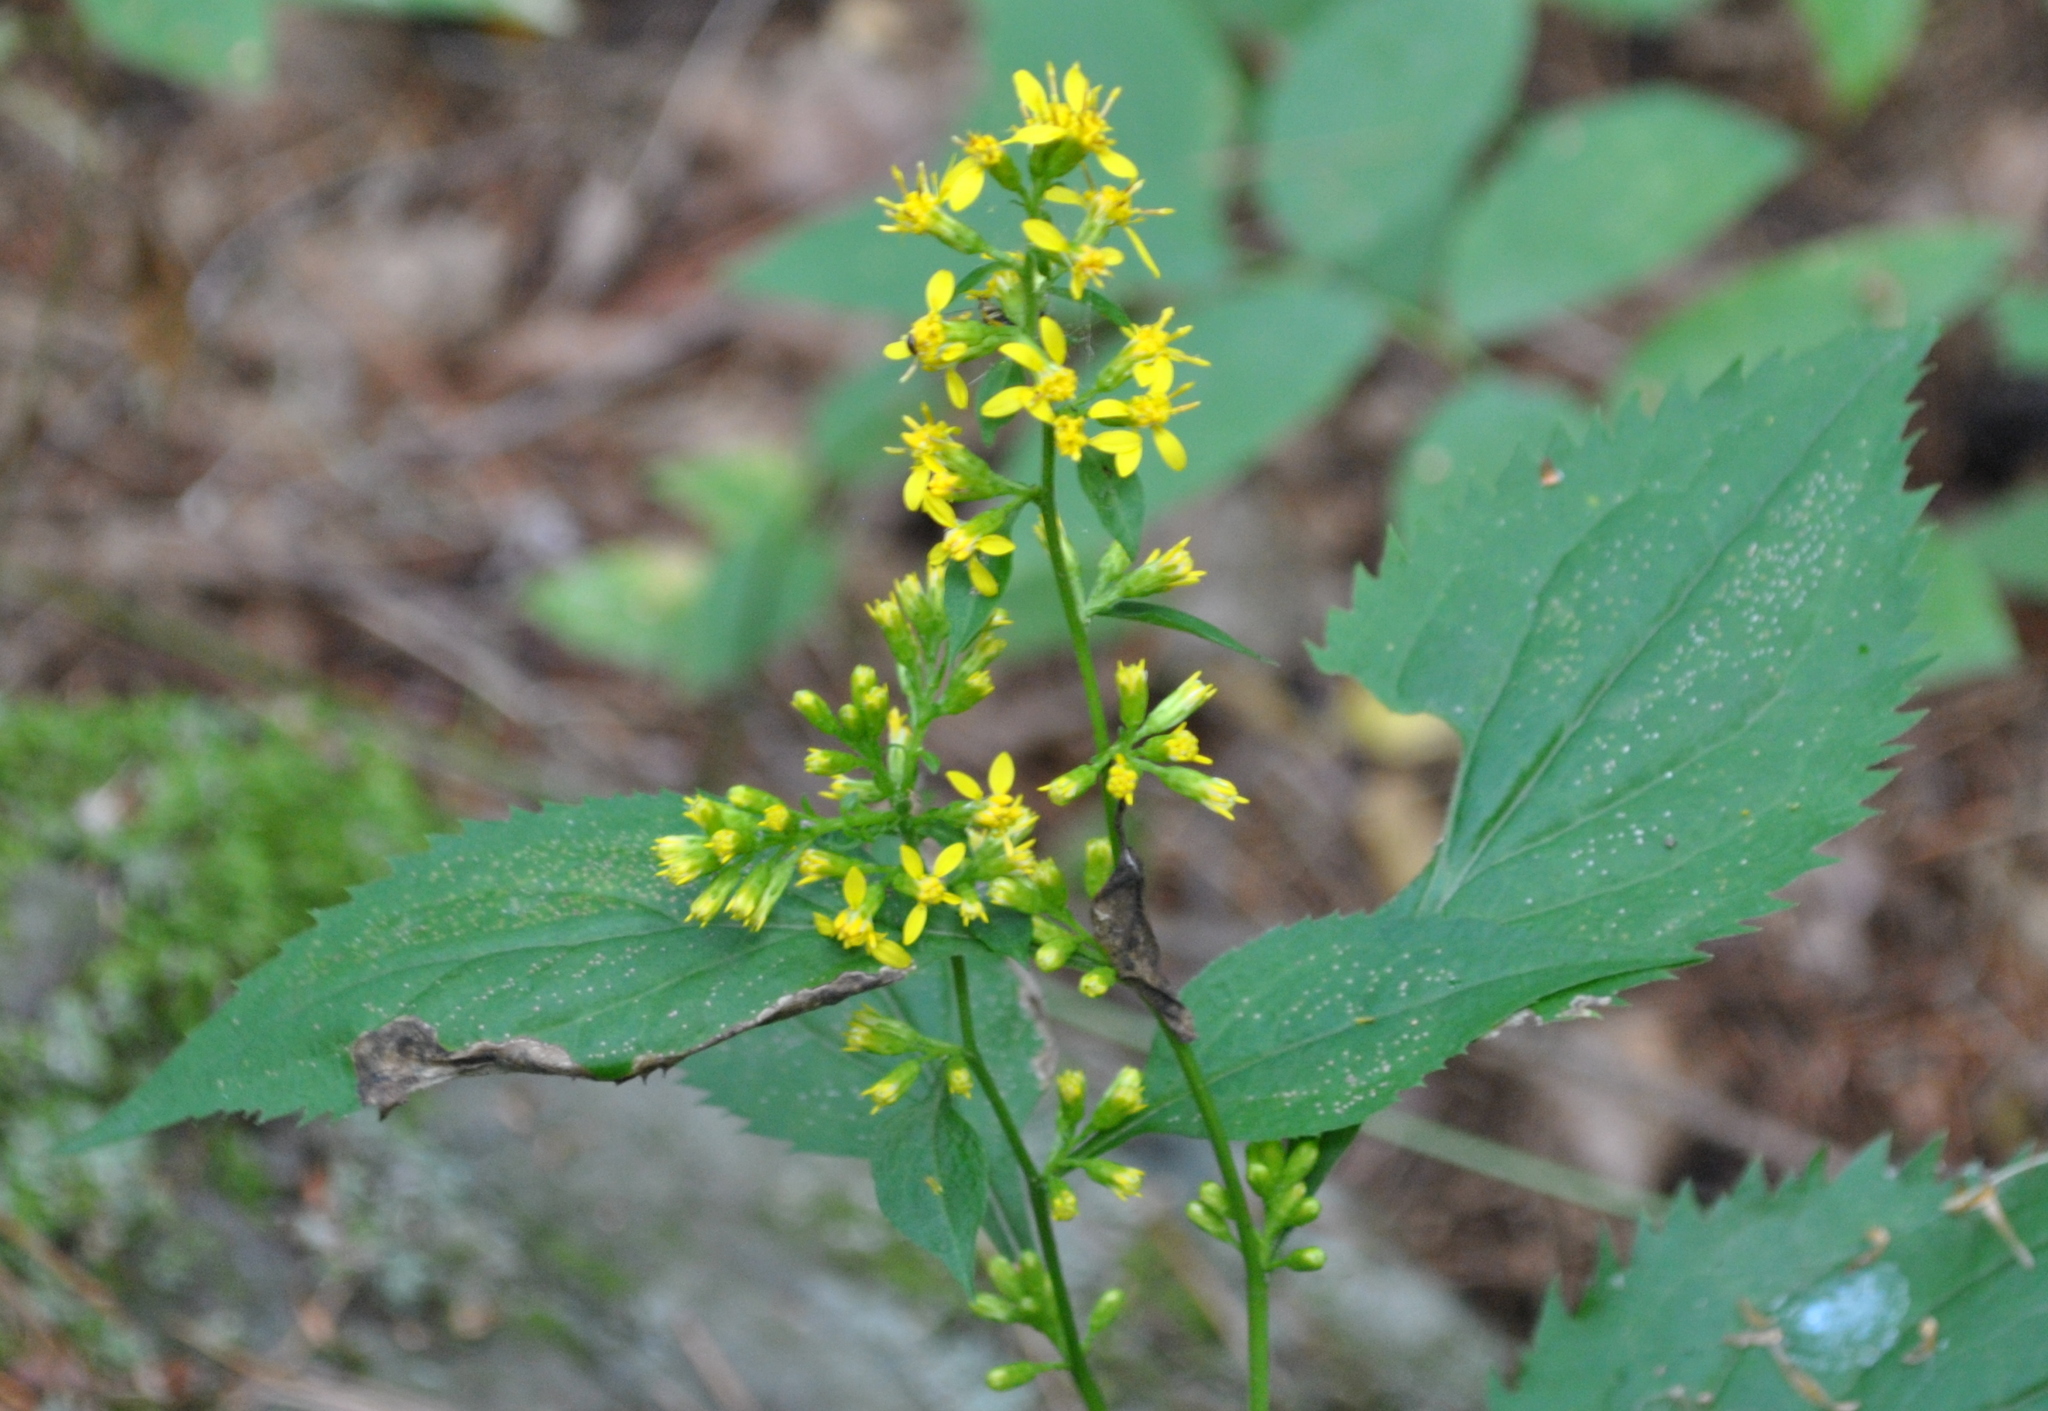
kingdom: Plantae
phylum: Tracheophyta
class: Magnoliopsida
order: Asterales
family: Asteraceae
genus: Solidago
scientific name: Solidago flexicaulis
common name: Zig-zag goldenrod
